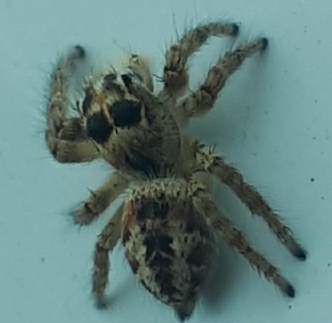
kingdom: Animalia
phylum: Arthropoda
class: Arachnida
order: Araneae
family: Salticidae
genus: Philaeus
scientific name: Philaeus chrysops
